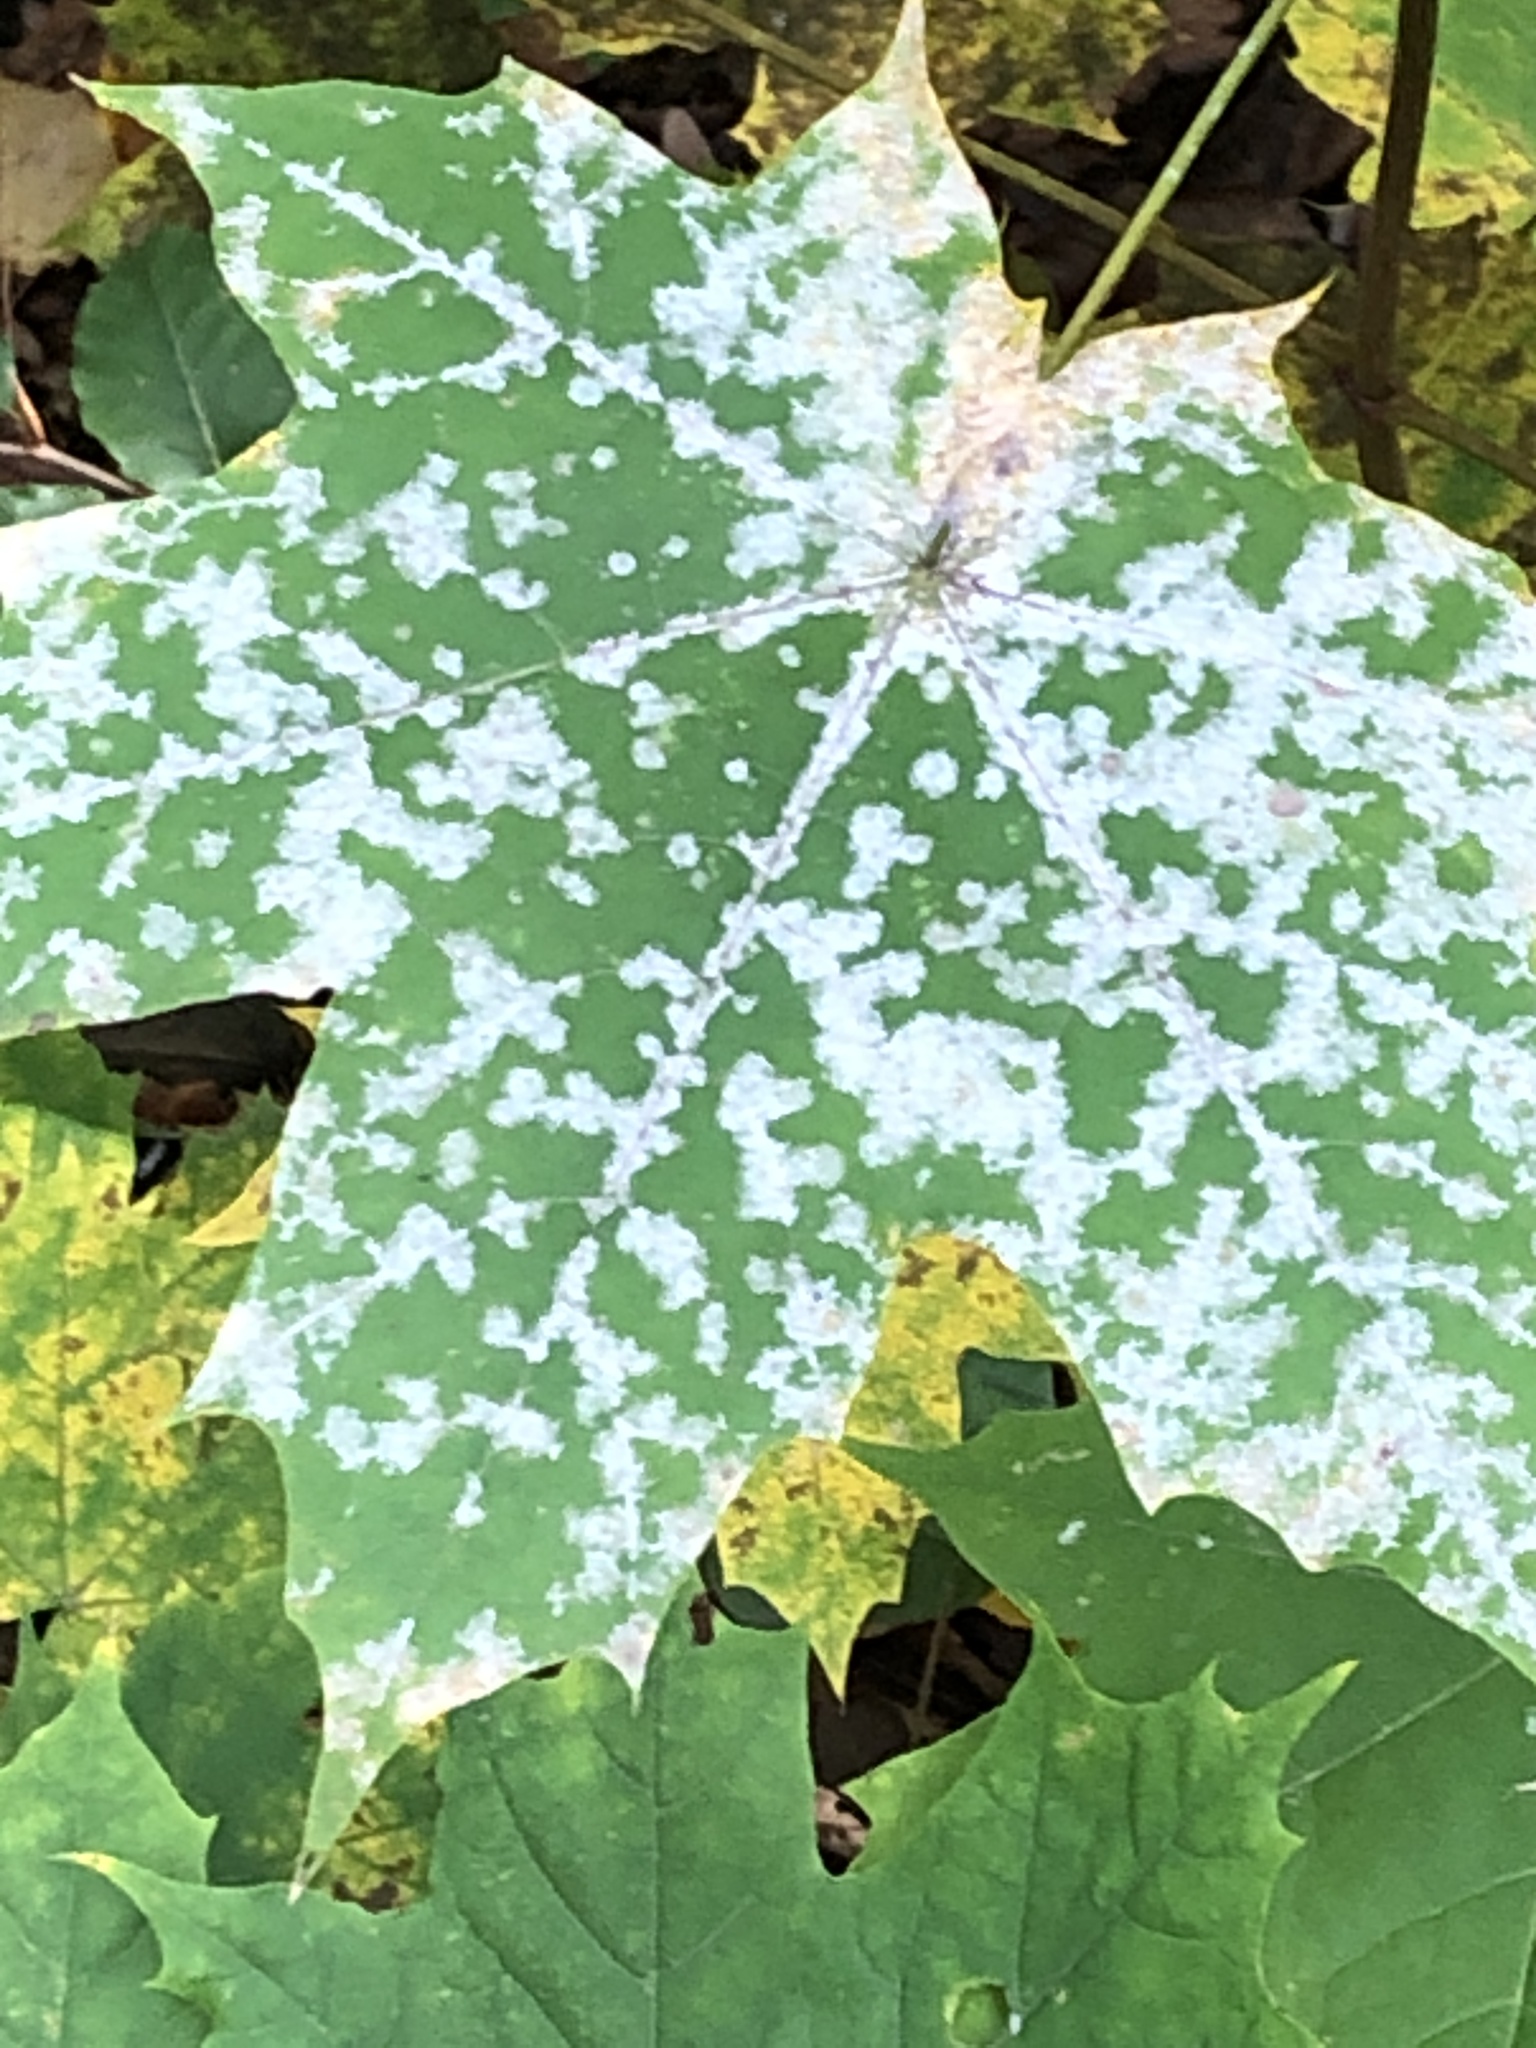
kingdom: Fungi
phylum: Ascomycota
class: Leotiomycetes
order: Helotiales
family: Erysiphaceae
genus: Sawadaea
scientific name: Sawadaea tulasnei
